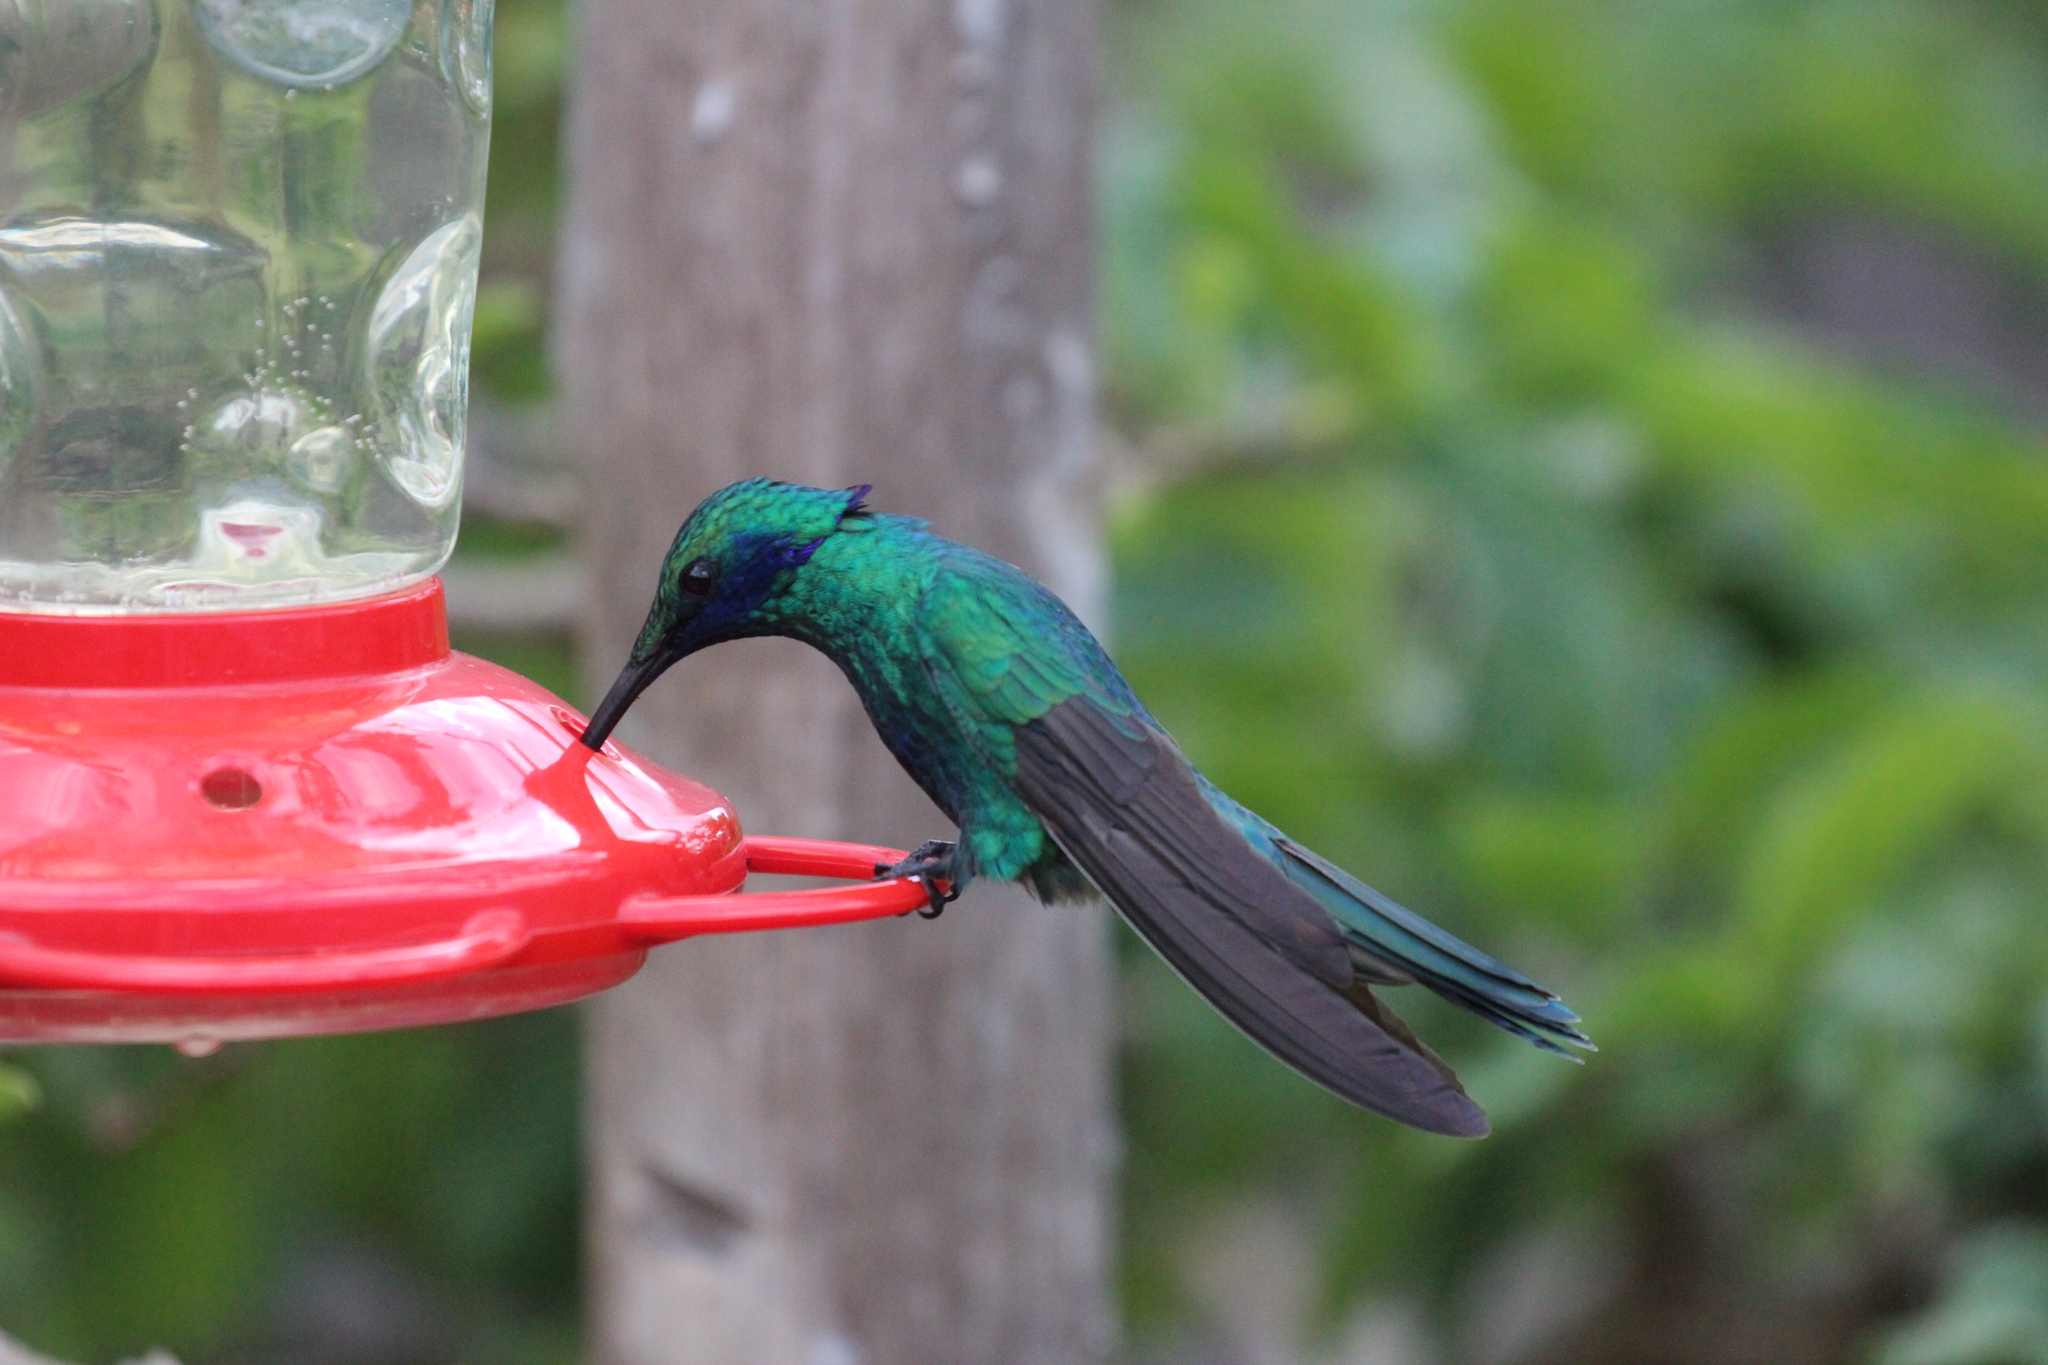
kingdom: Animalia
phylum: Chordata
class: Aves
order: Apodiformes
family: Trochilidae
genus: Colibri
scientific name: Colibri coruscans
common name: Sparkling violetear
